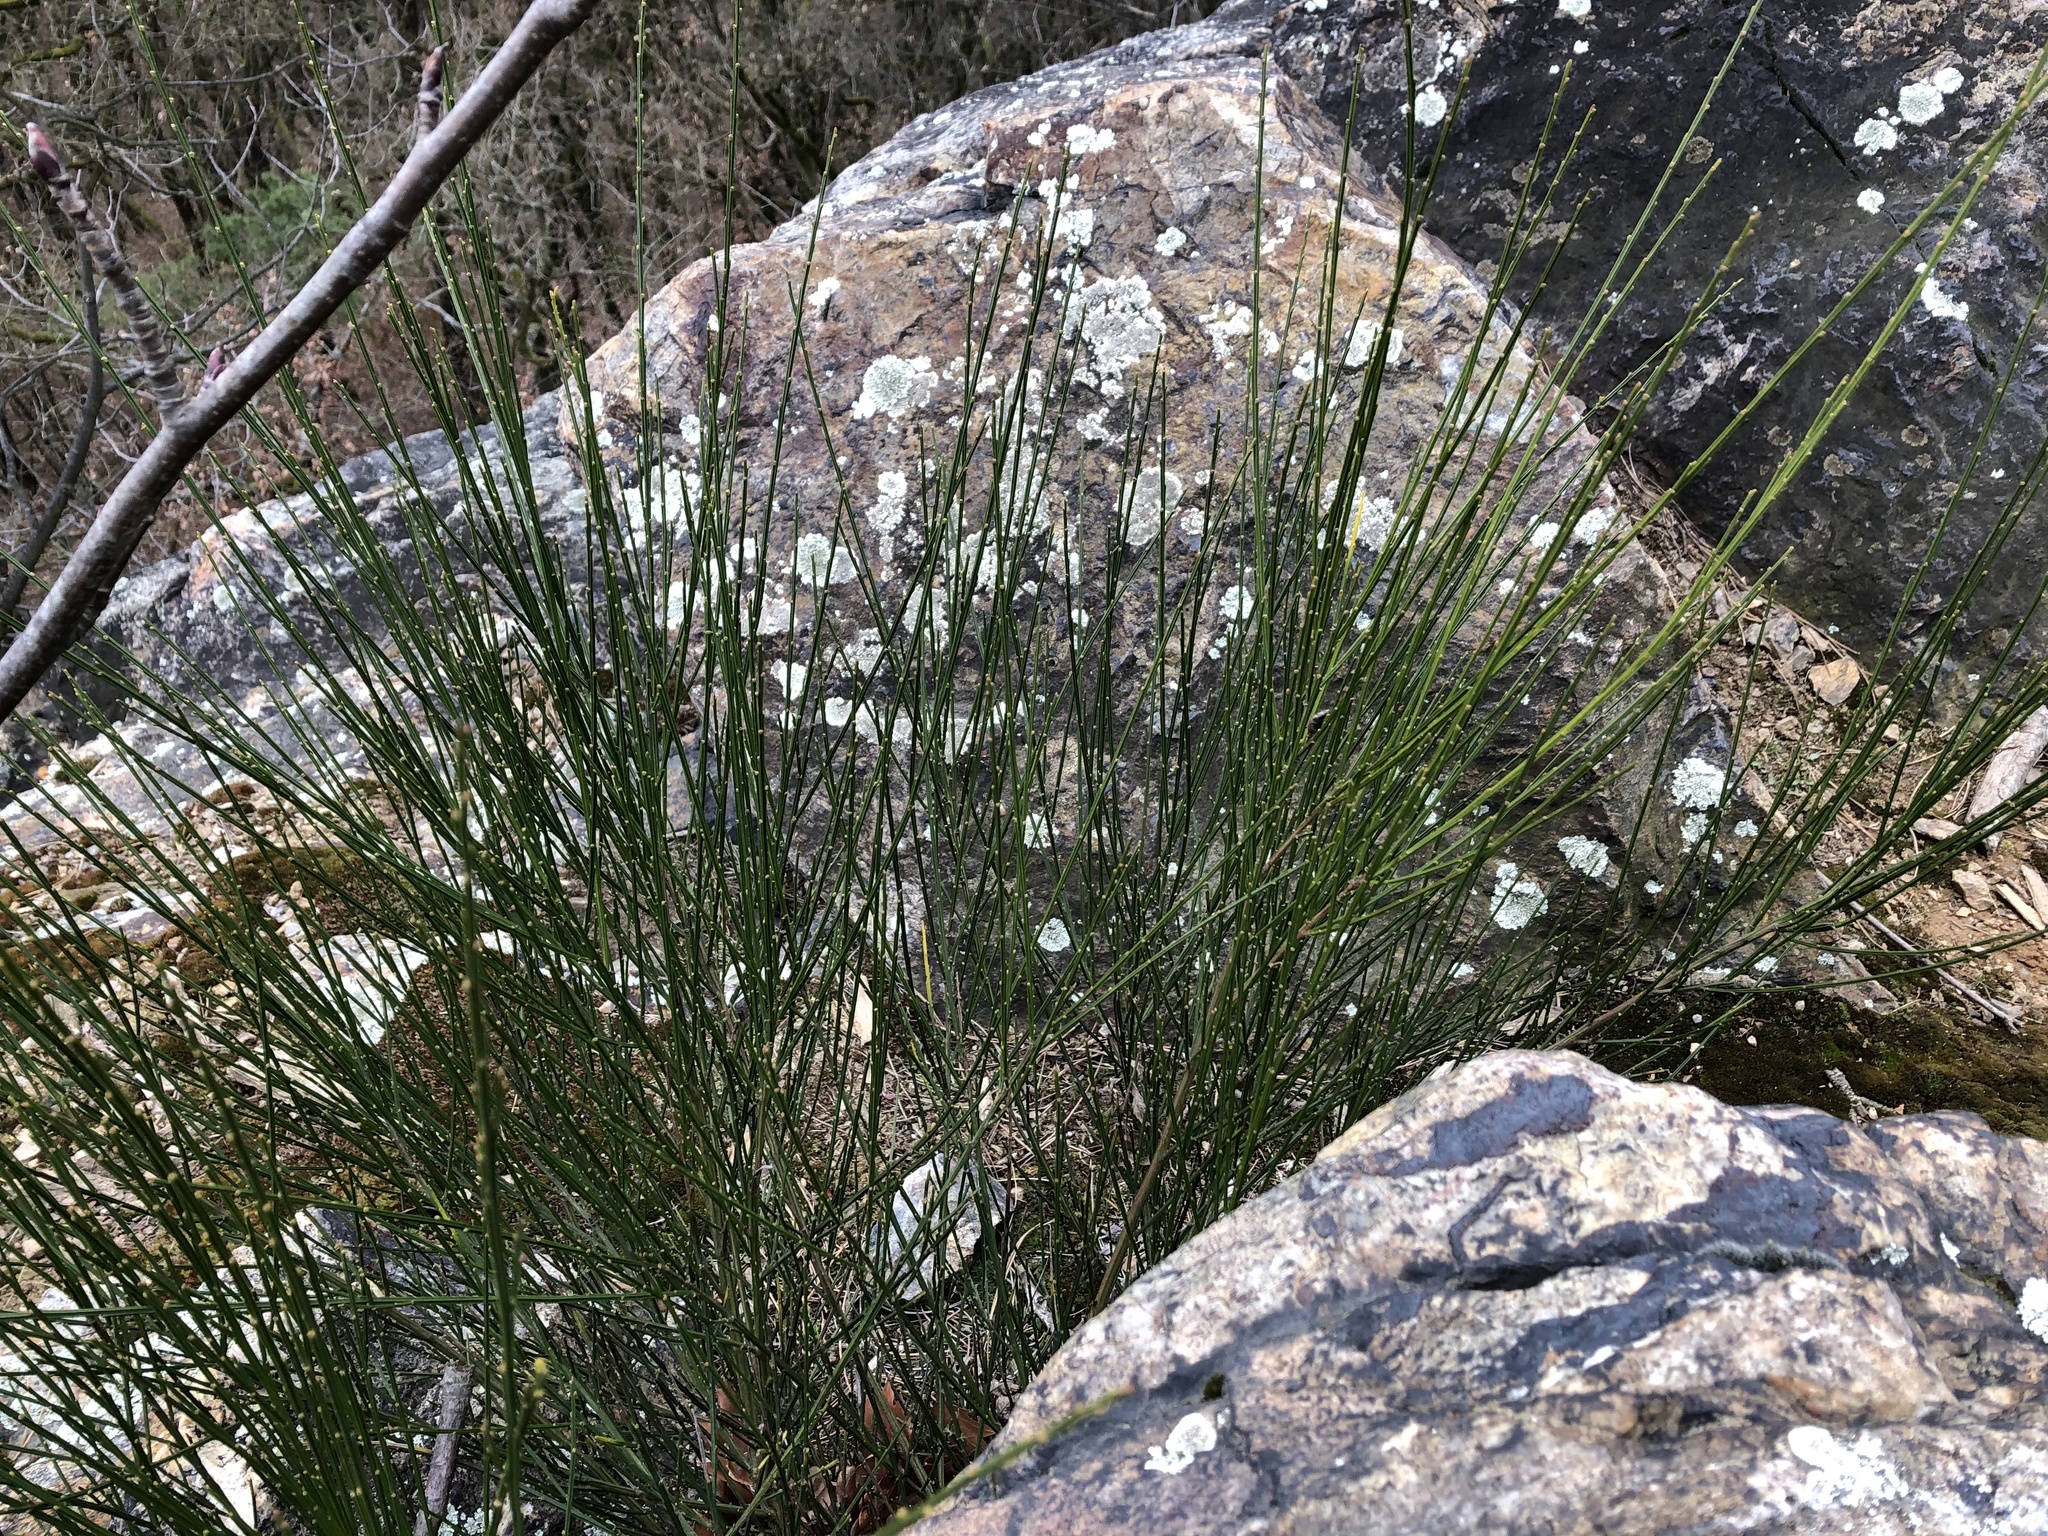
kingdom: Plantae
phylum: Tracheophyta
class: Magnoliopsida
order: Fabales
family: Fabaceae
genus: Cytisus
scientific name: Cytisus scoparius
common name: Scotch broom
